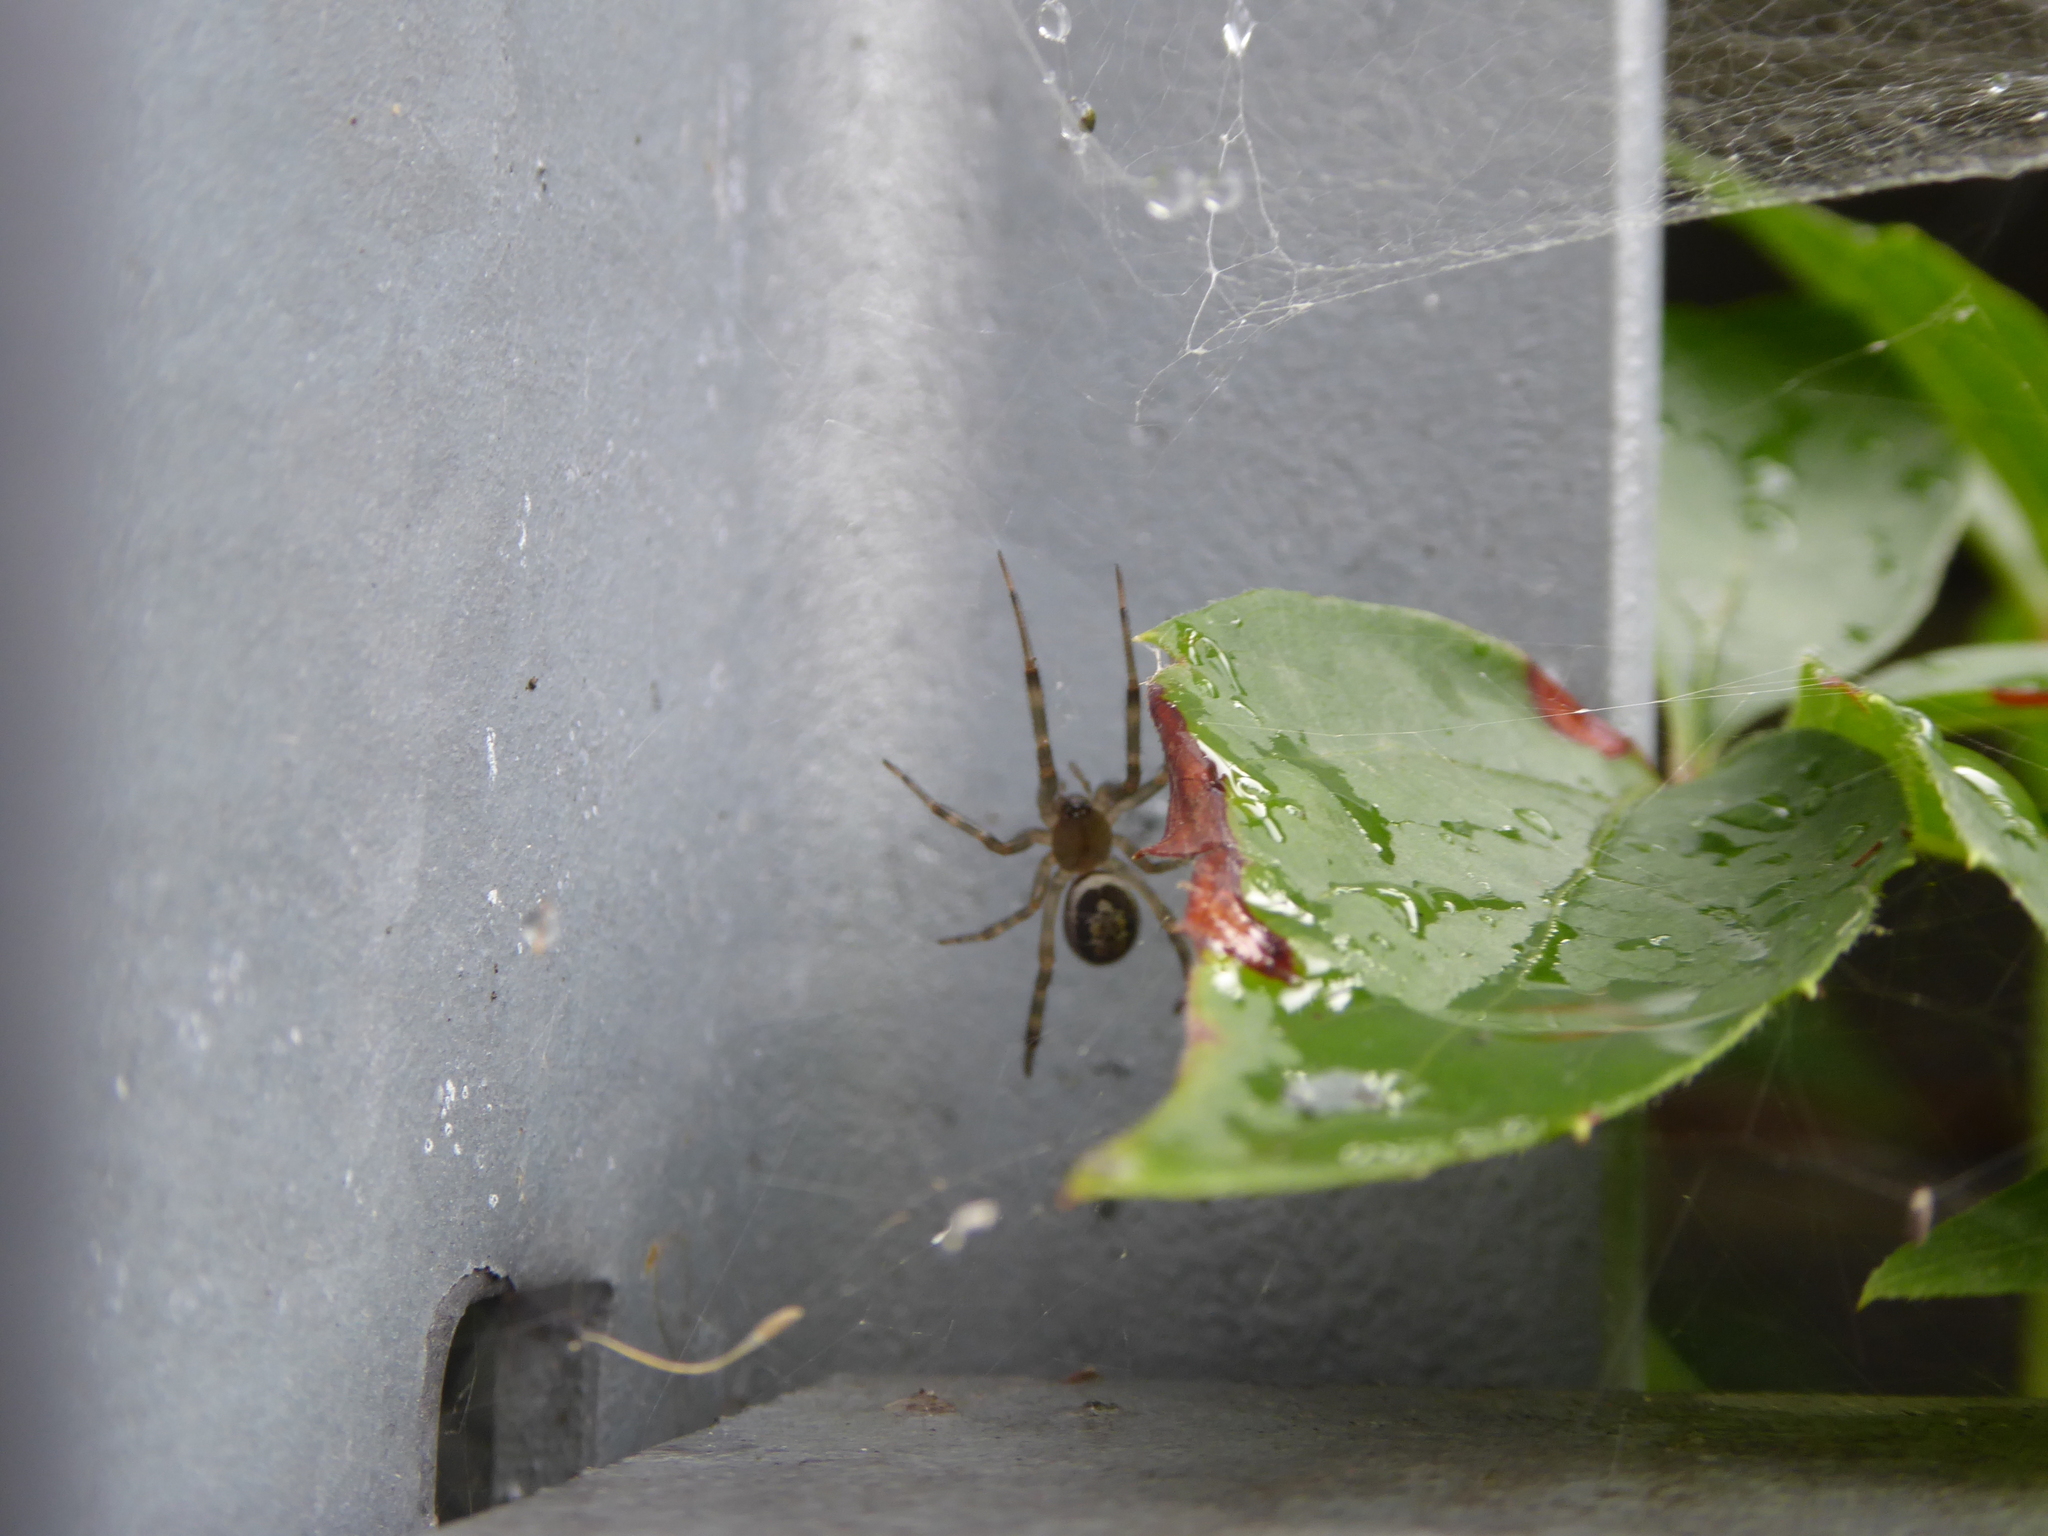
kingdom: Animalia
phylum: Arthropoda
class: Arachnida
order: Araneae
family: Theridiidae
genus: Steatoda
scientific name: Steatoda nobilis
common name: Cobweb weaver
